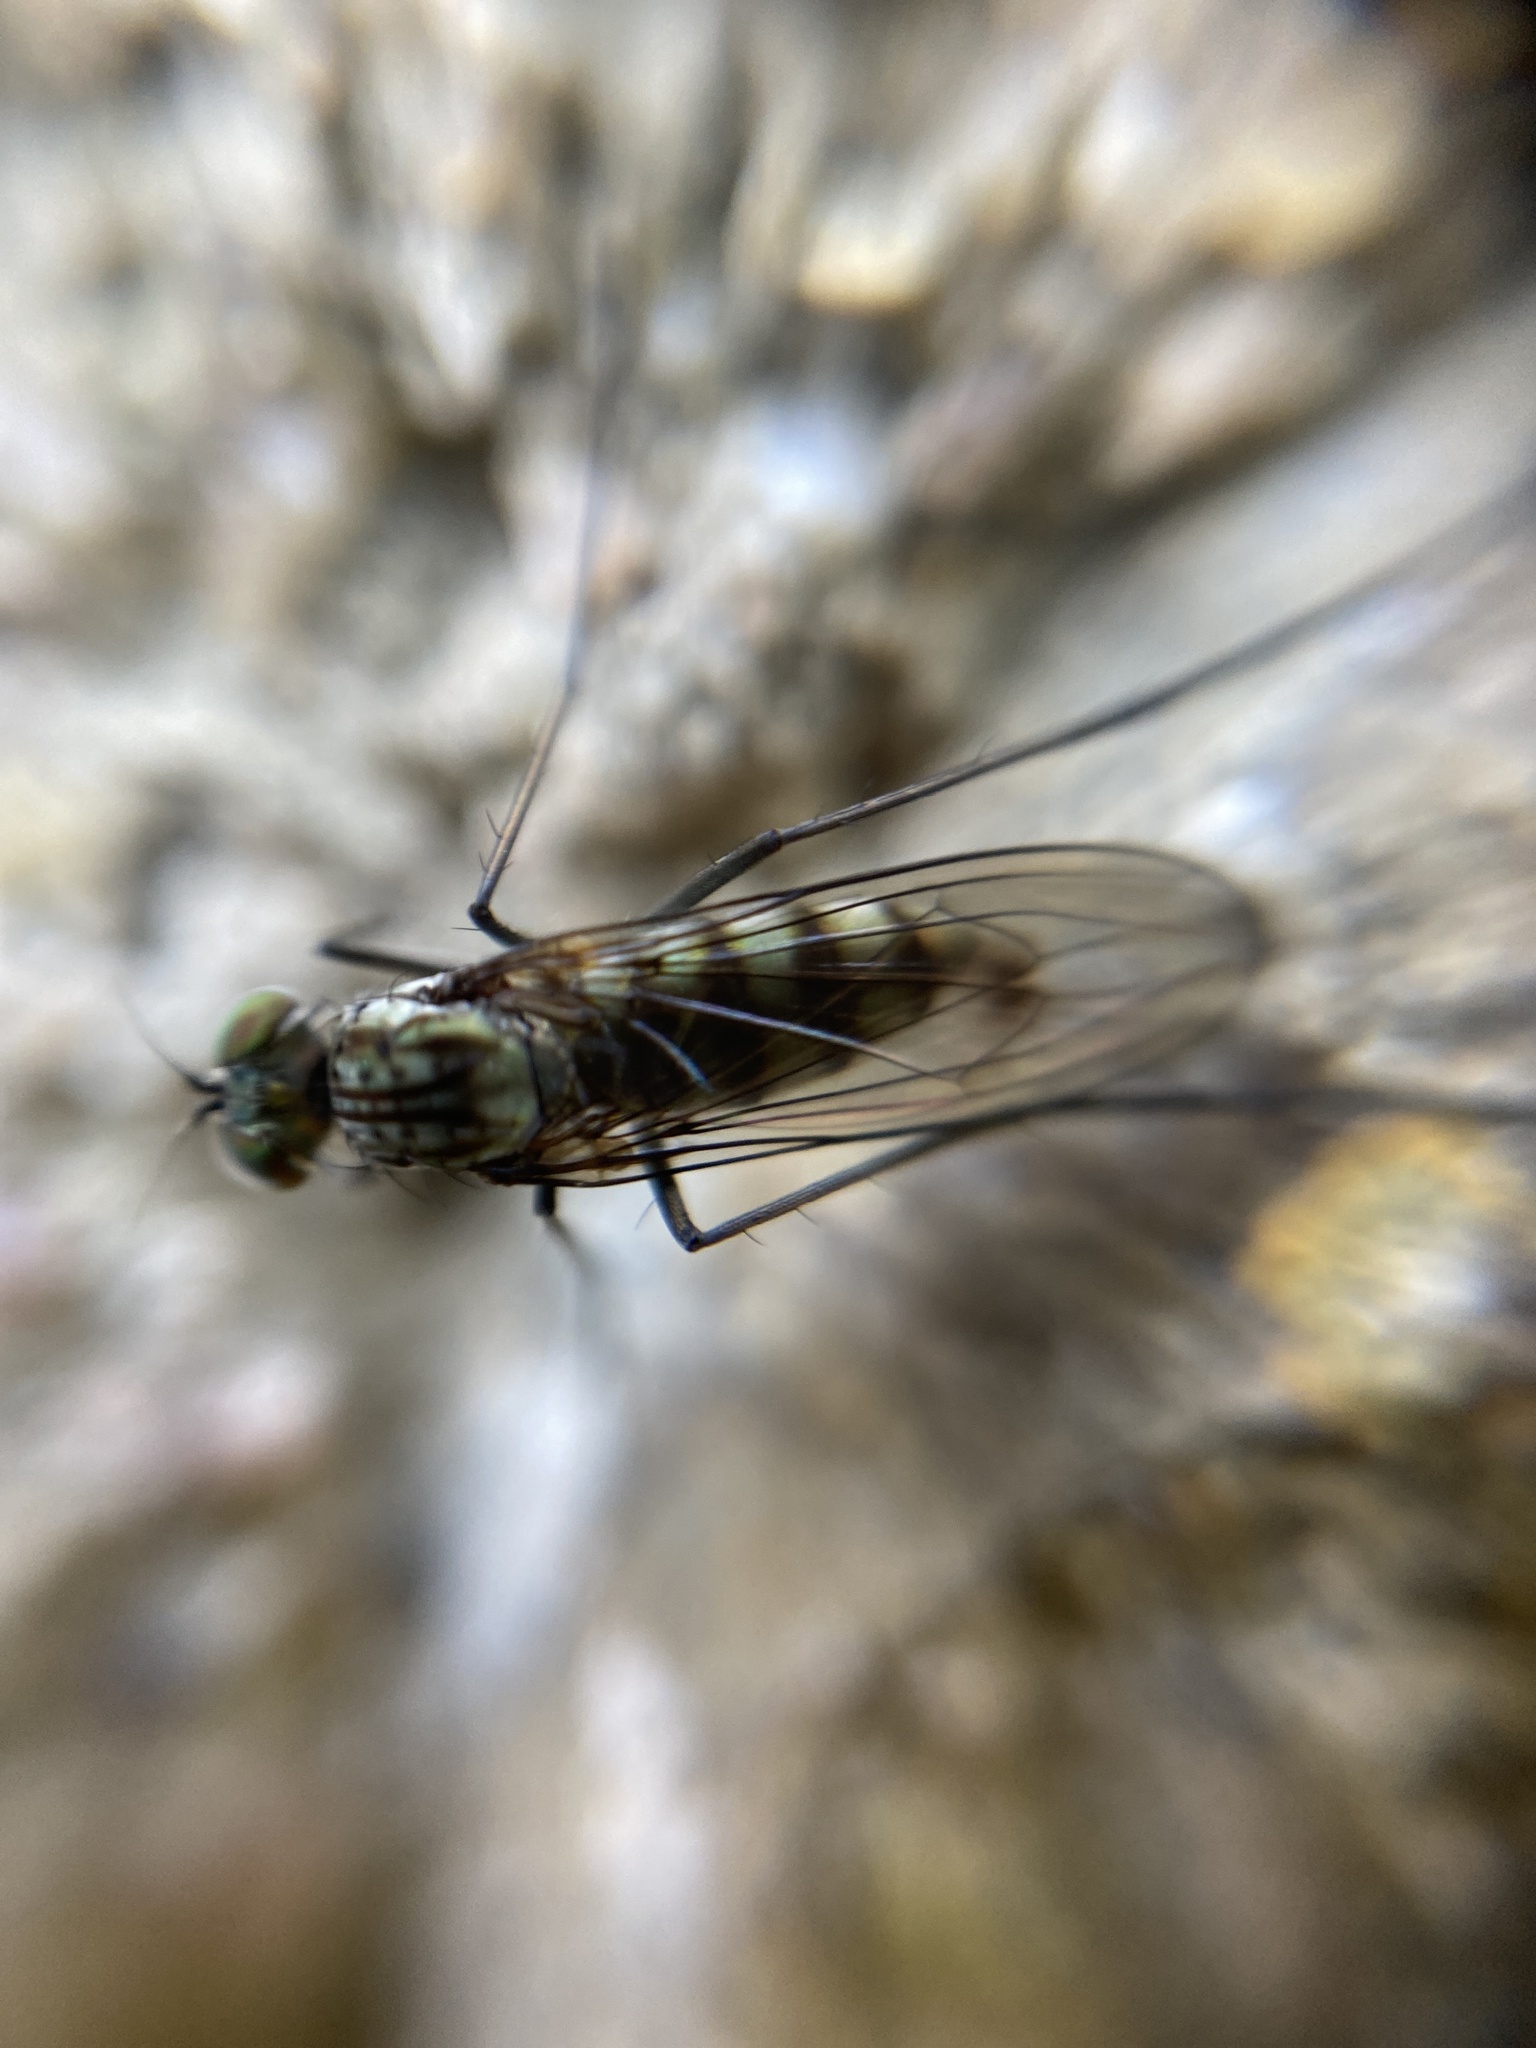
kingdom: Animalia
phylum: Arthropoda
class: Insecta
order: Diptera
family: Dolichopodidae
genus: Liancalus
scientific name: Liancalus virens
